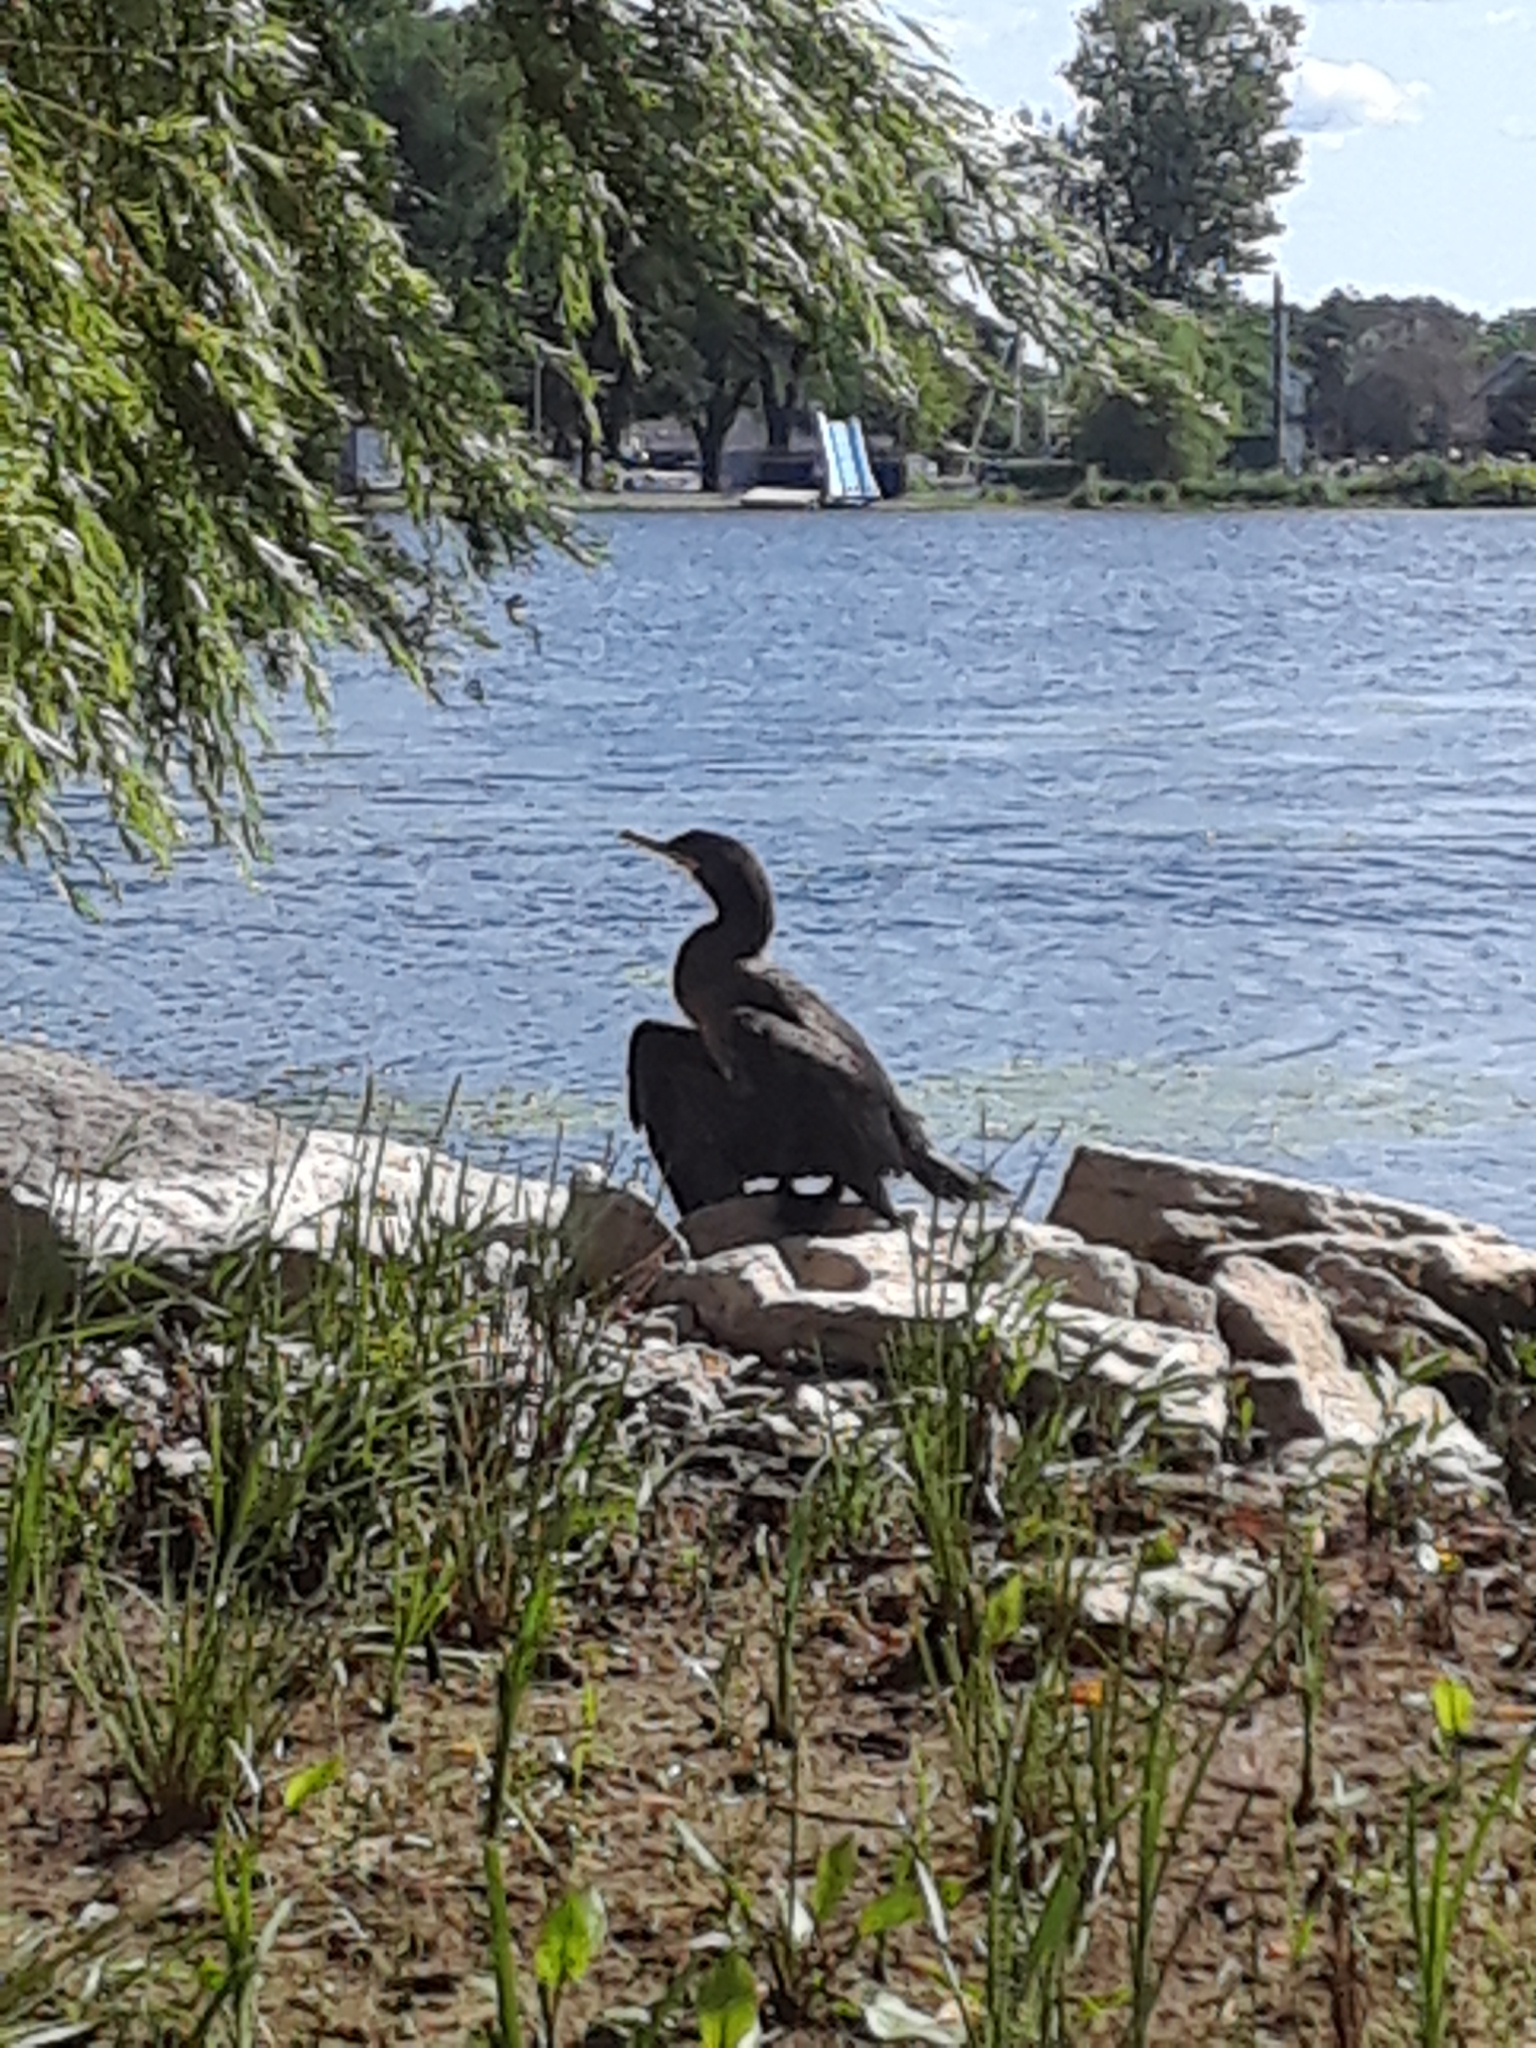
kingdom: Animalia
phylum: Chordata
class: Aves
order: Suliformes
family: Phalacrocoracidae
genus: Phalacrocorax
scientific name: Phalacrocorax auritus
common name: Double-crested cormorant
